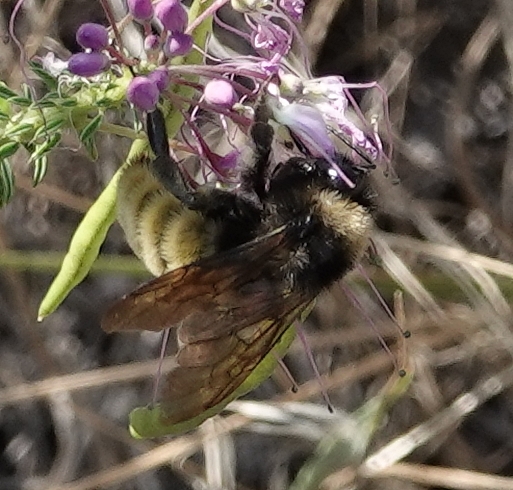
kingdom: Animalia
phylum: Arthropoda
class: Insecta
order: Hymenoptera
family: Apidae
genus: Bombus
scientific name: Bombus pensylvanicus
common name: Bumble bee
